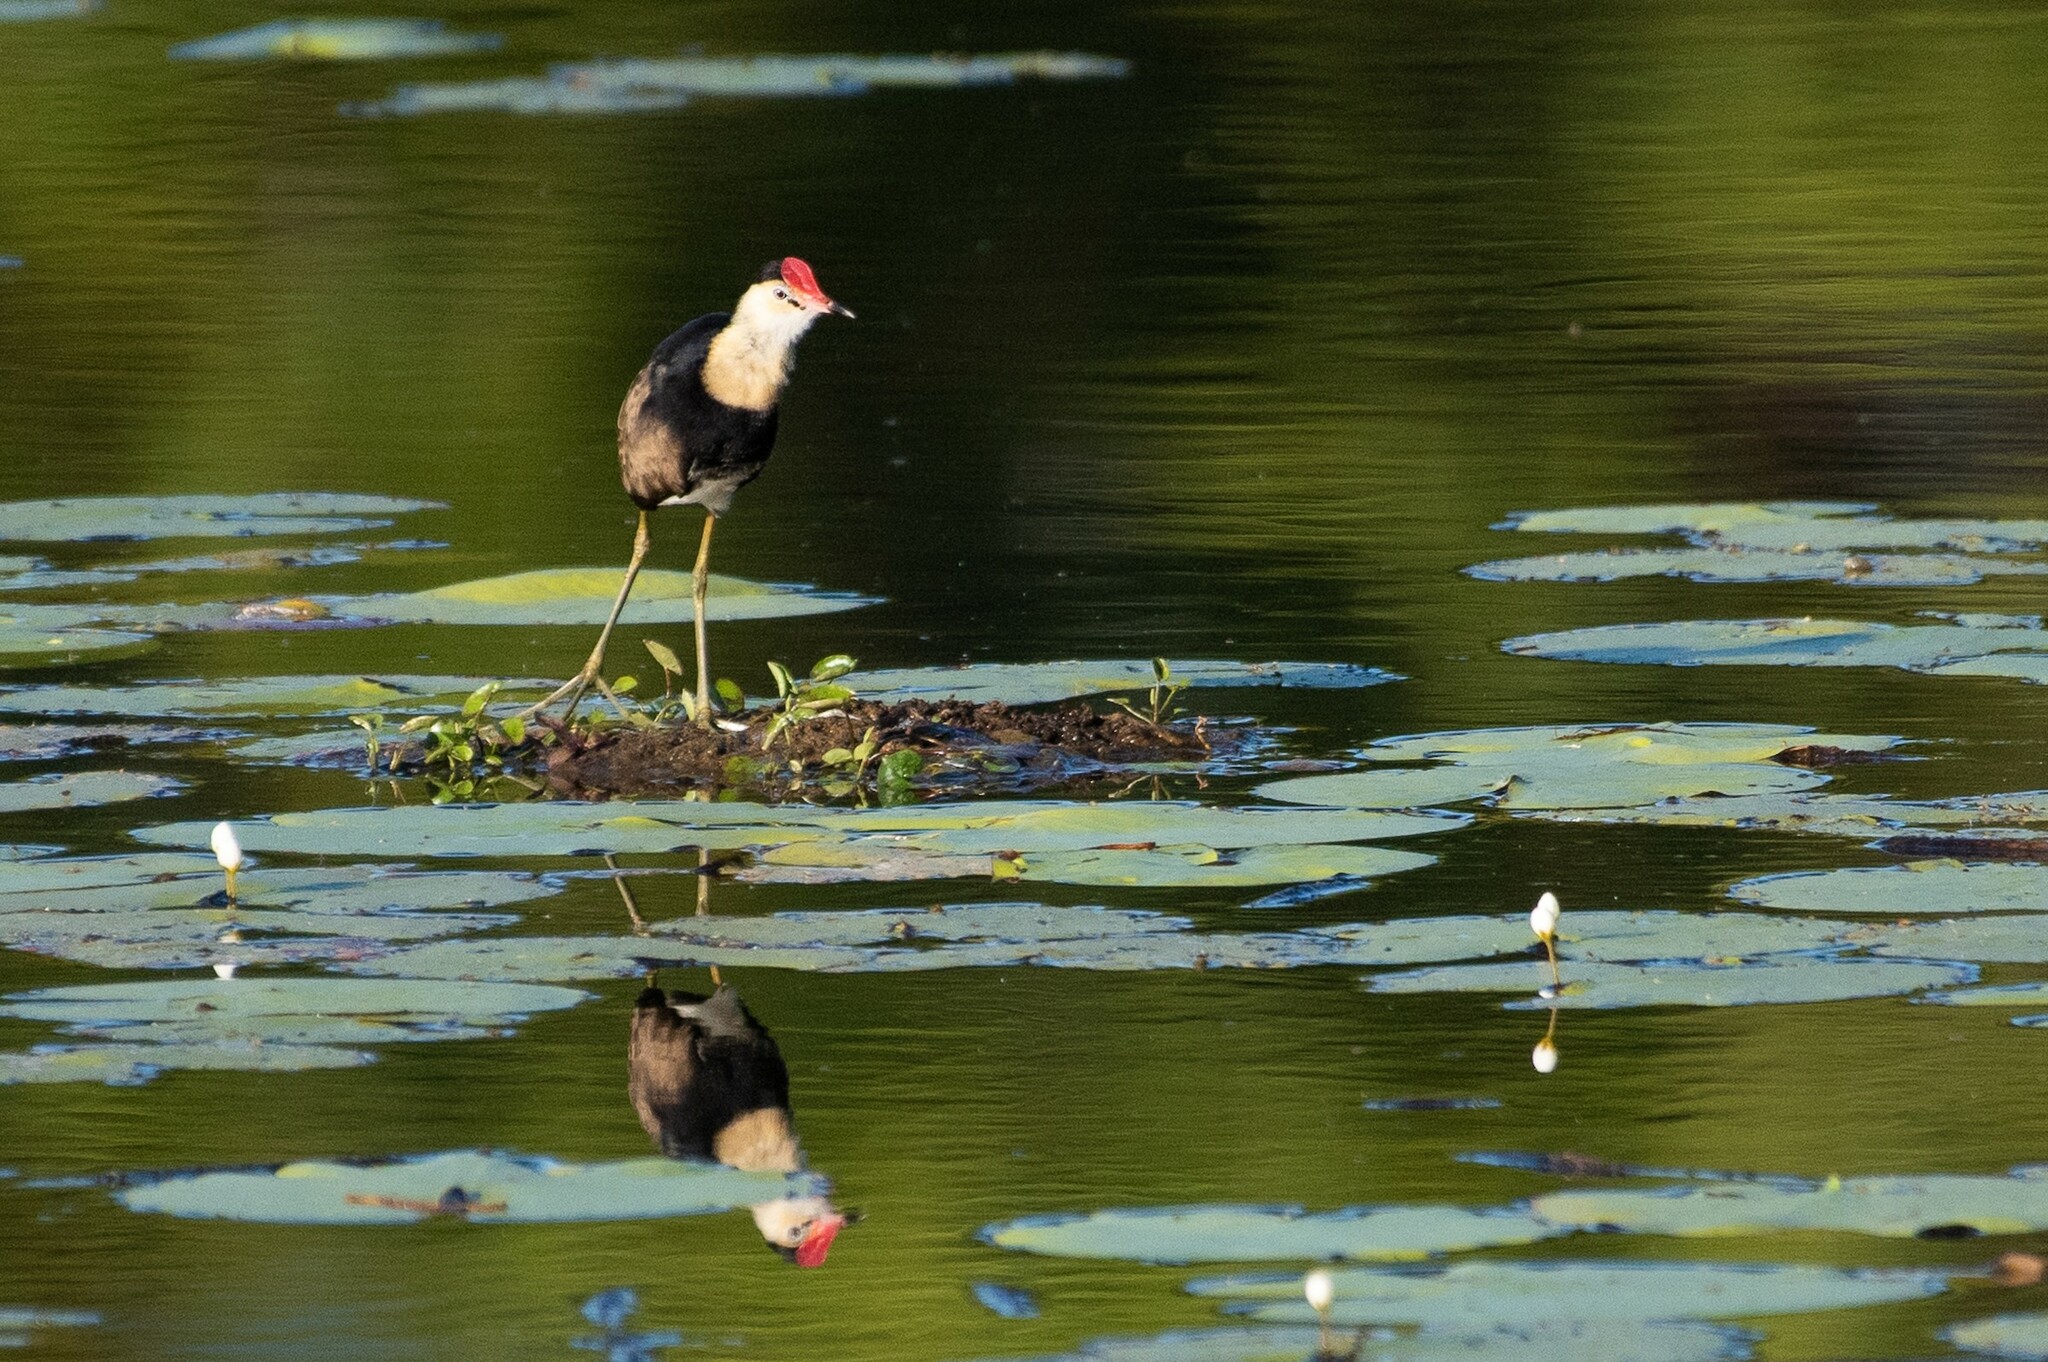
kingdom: Animalia
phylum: Chordata
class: Aves
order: Charadriiformes
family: Jacanidae
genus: Irediparra
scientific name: Irediparra gallinacea
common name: Comb-crested jacana
